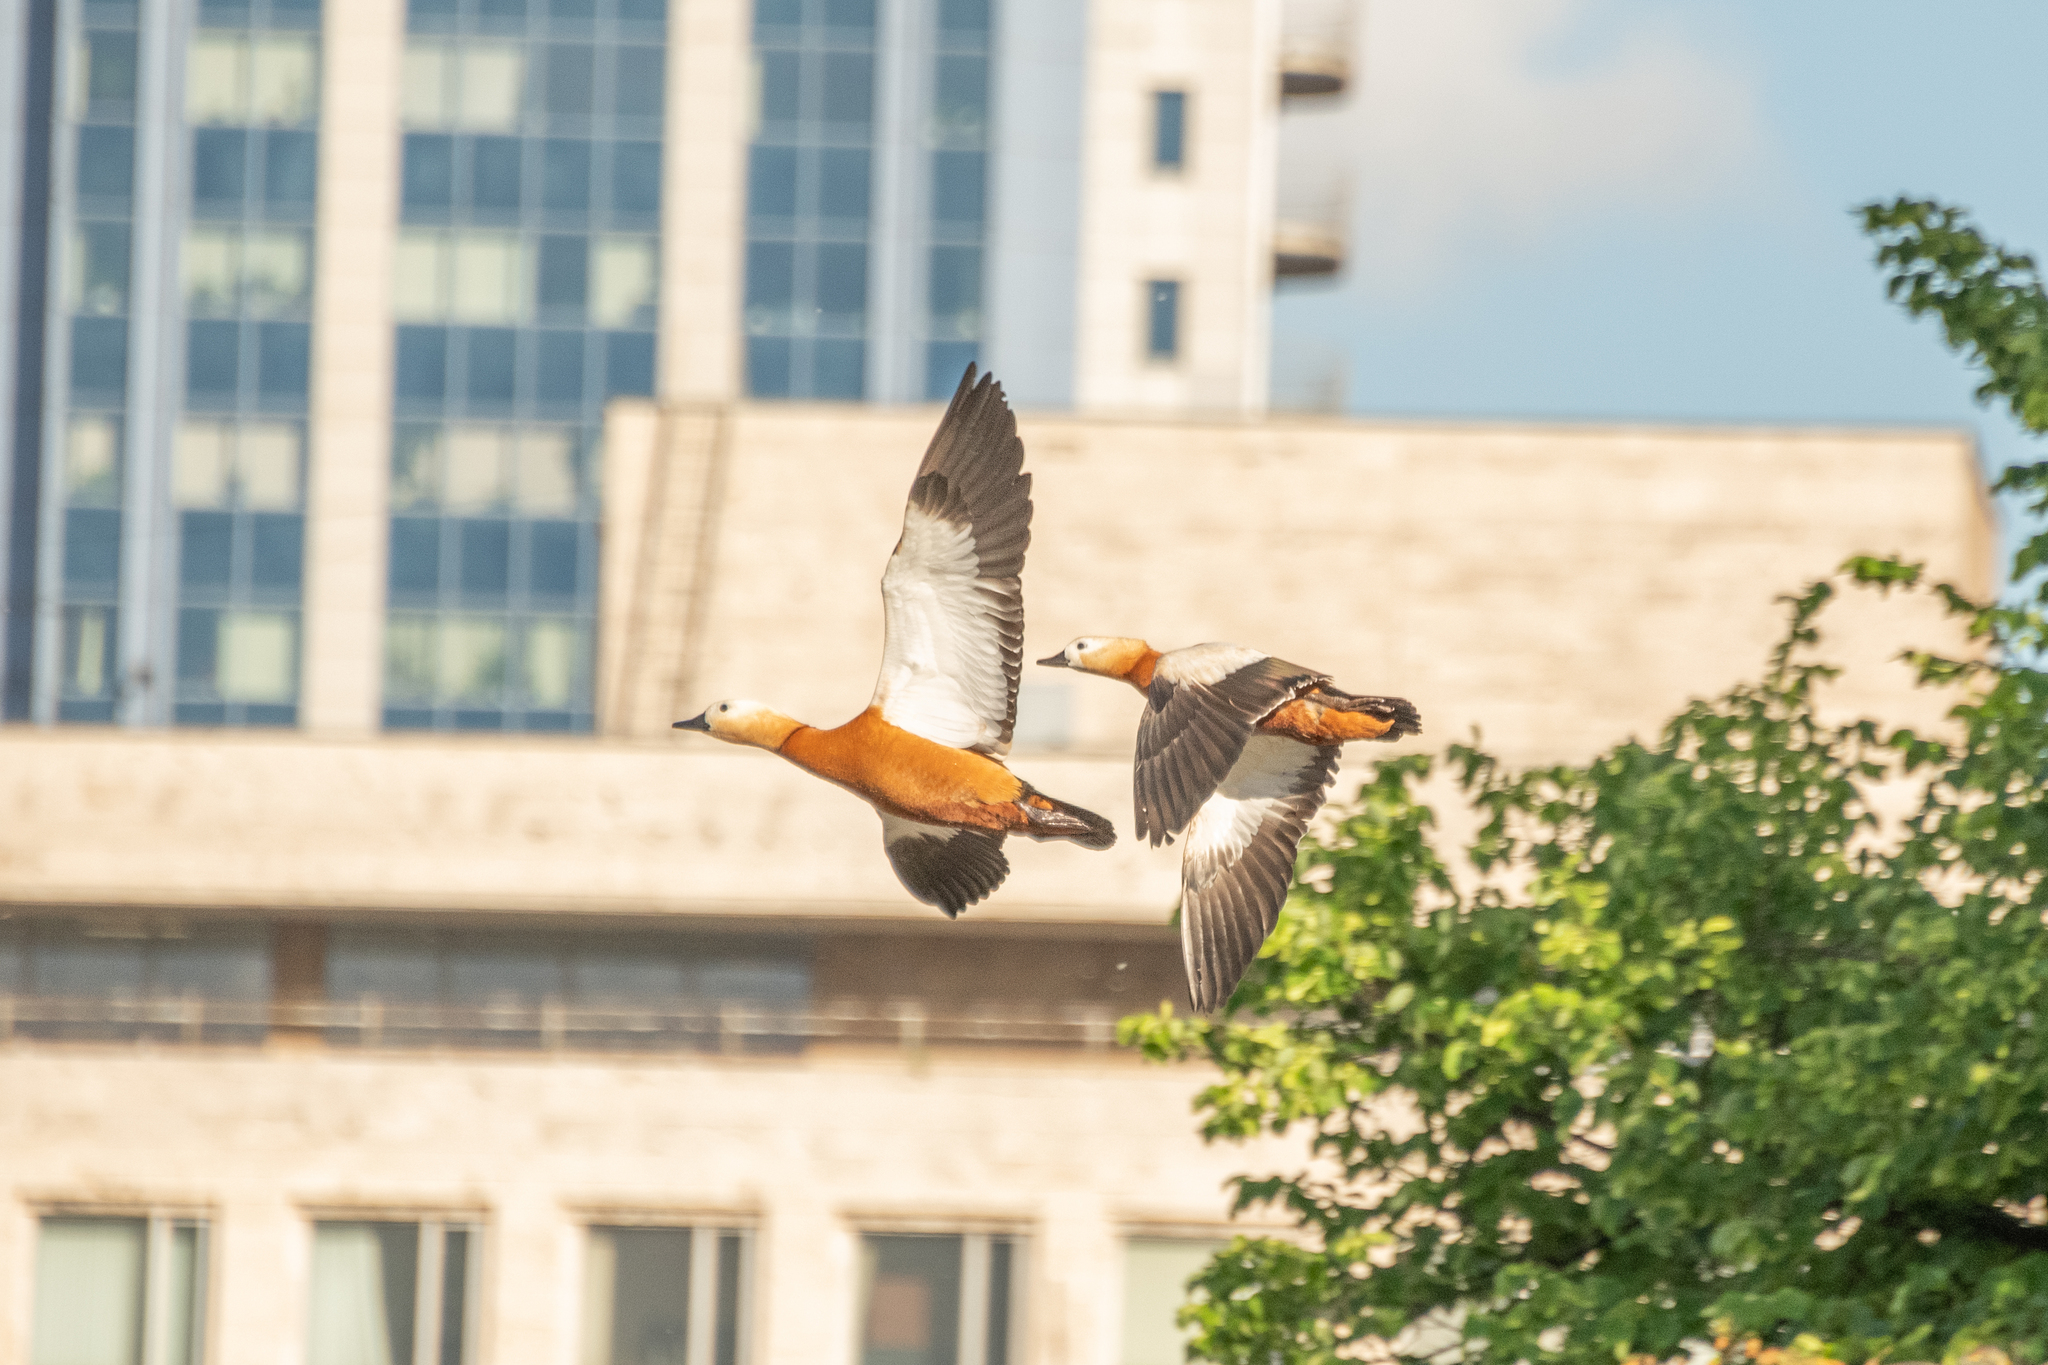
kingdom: Animalia
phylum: Chordata
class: Aves
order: Anseriformes
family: Anatidae
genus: Tadorna
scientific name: Tadorna ferruginea
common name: Ruddy shelduck
